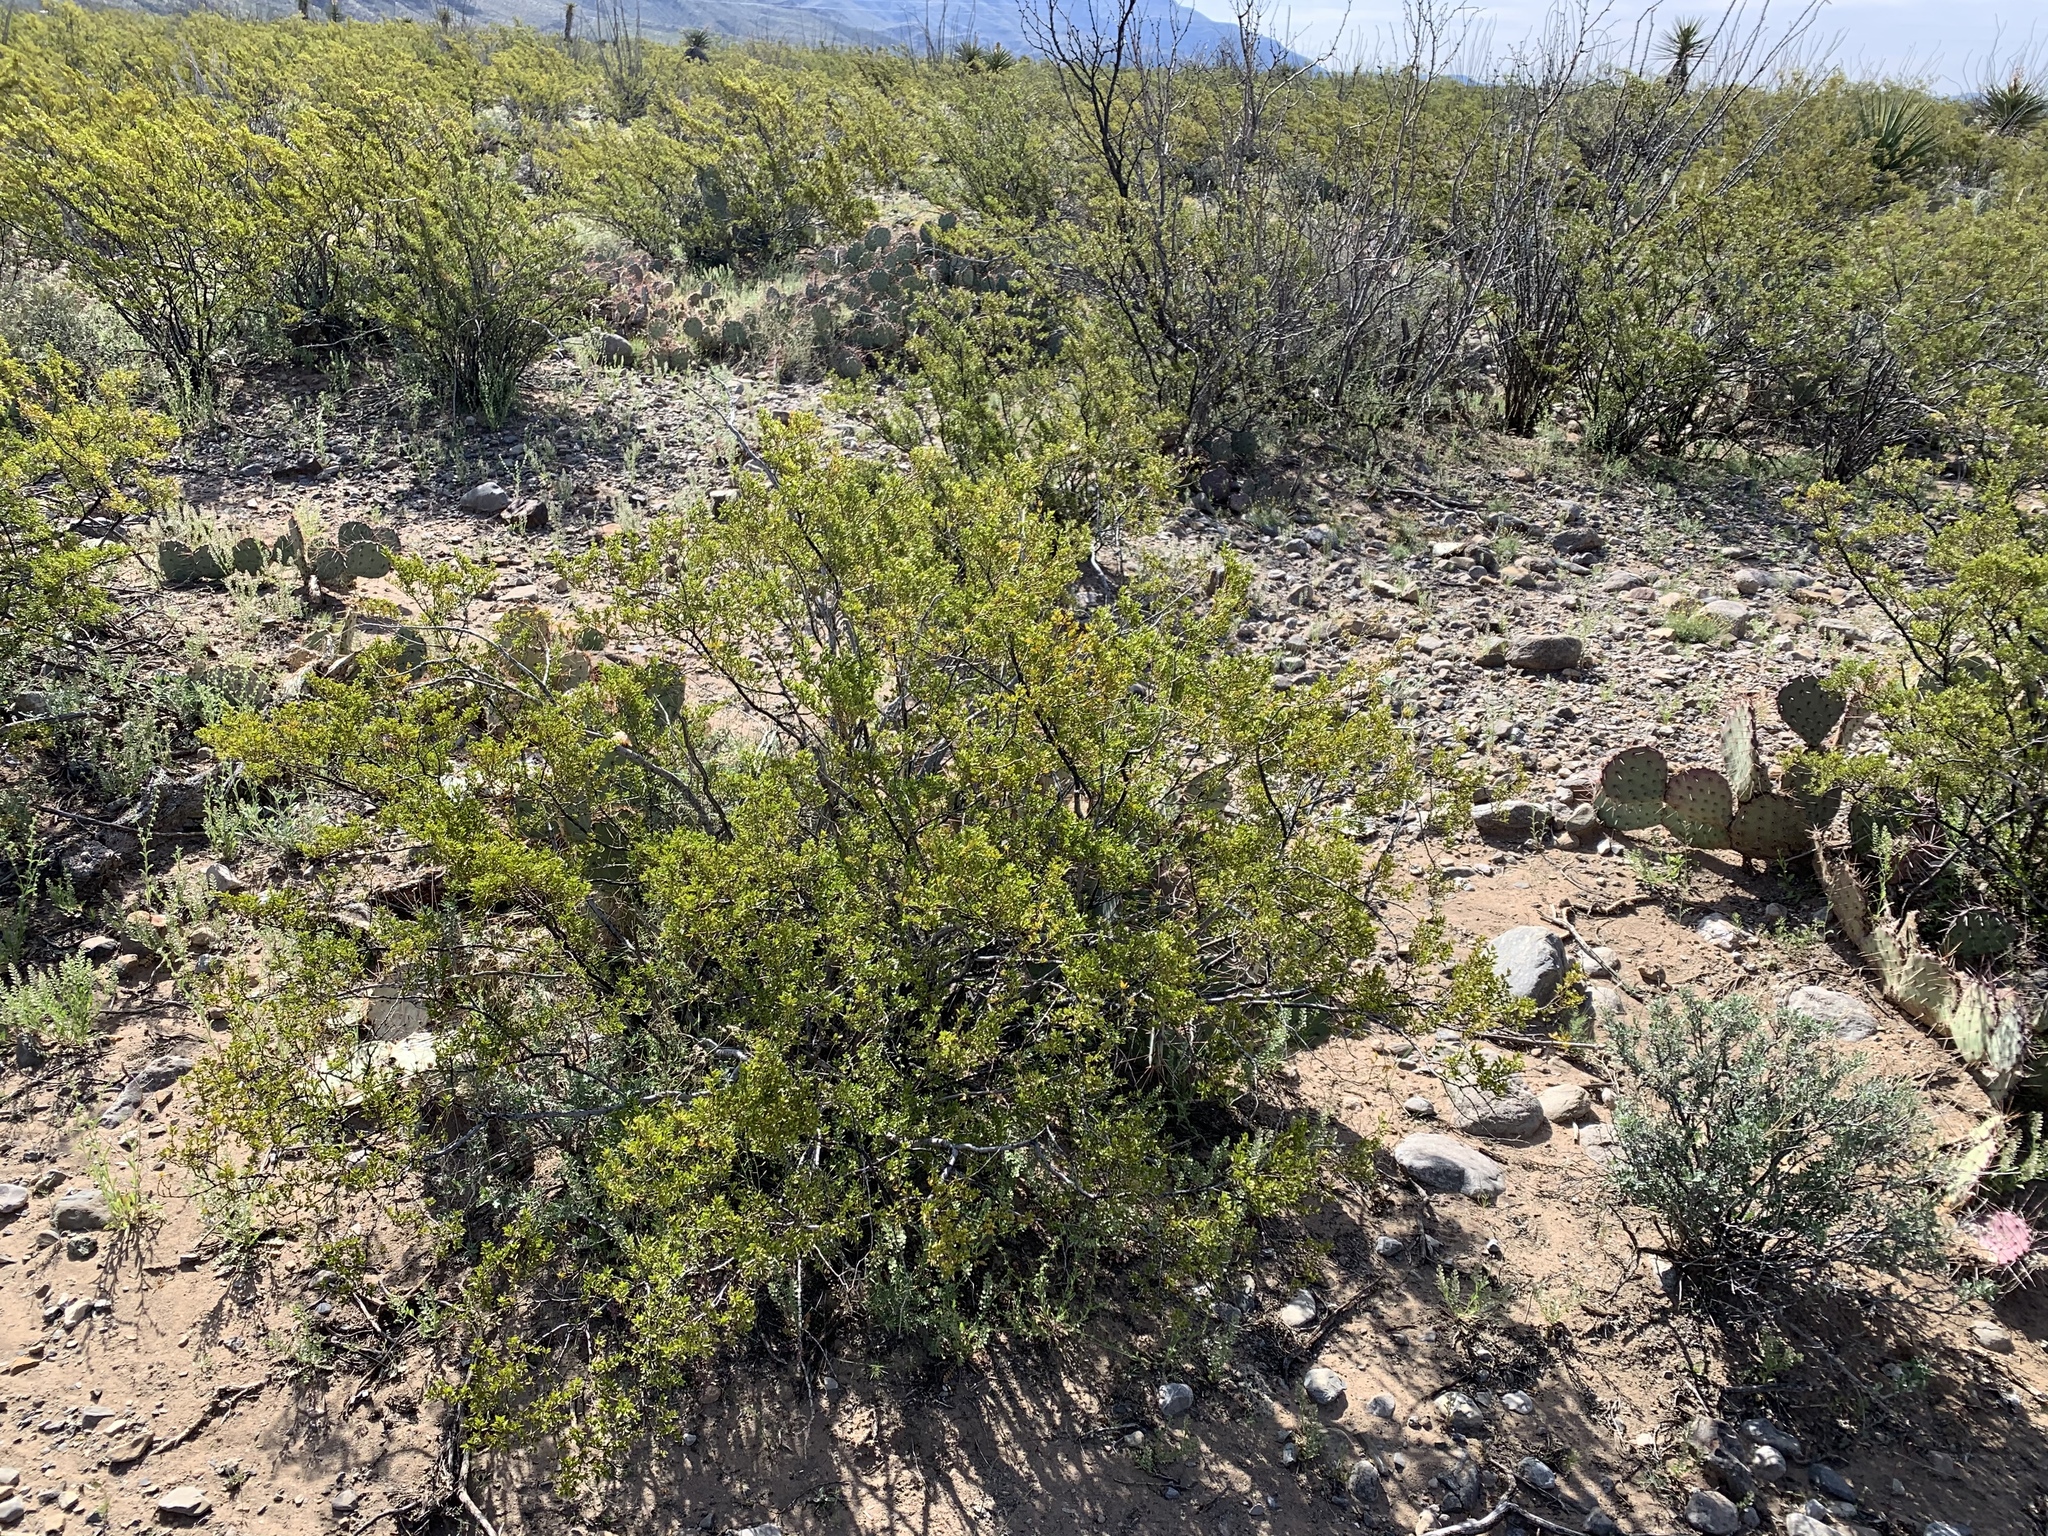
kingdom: Plantae
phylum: Tracheophyta
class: Magnoliopsida
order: Zygophyllales
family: Zygophyllaceae
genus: Larrea
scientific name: Larrea tridentata
